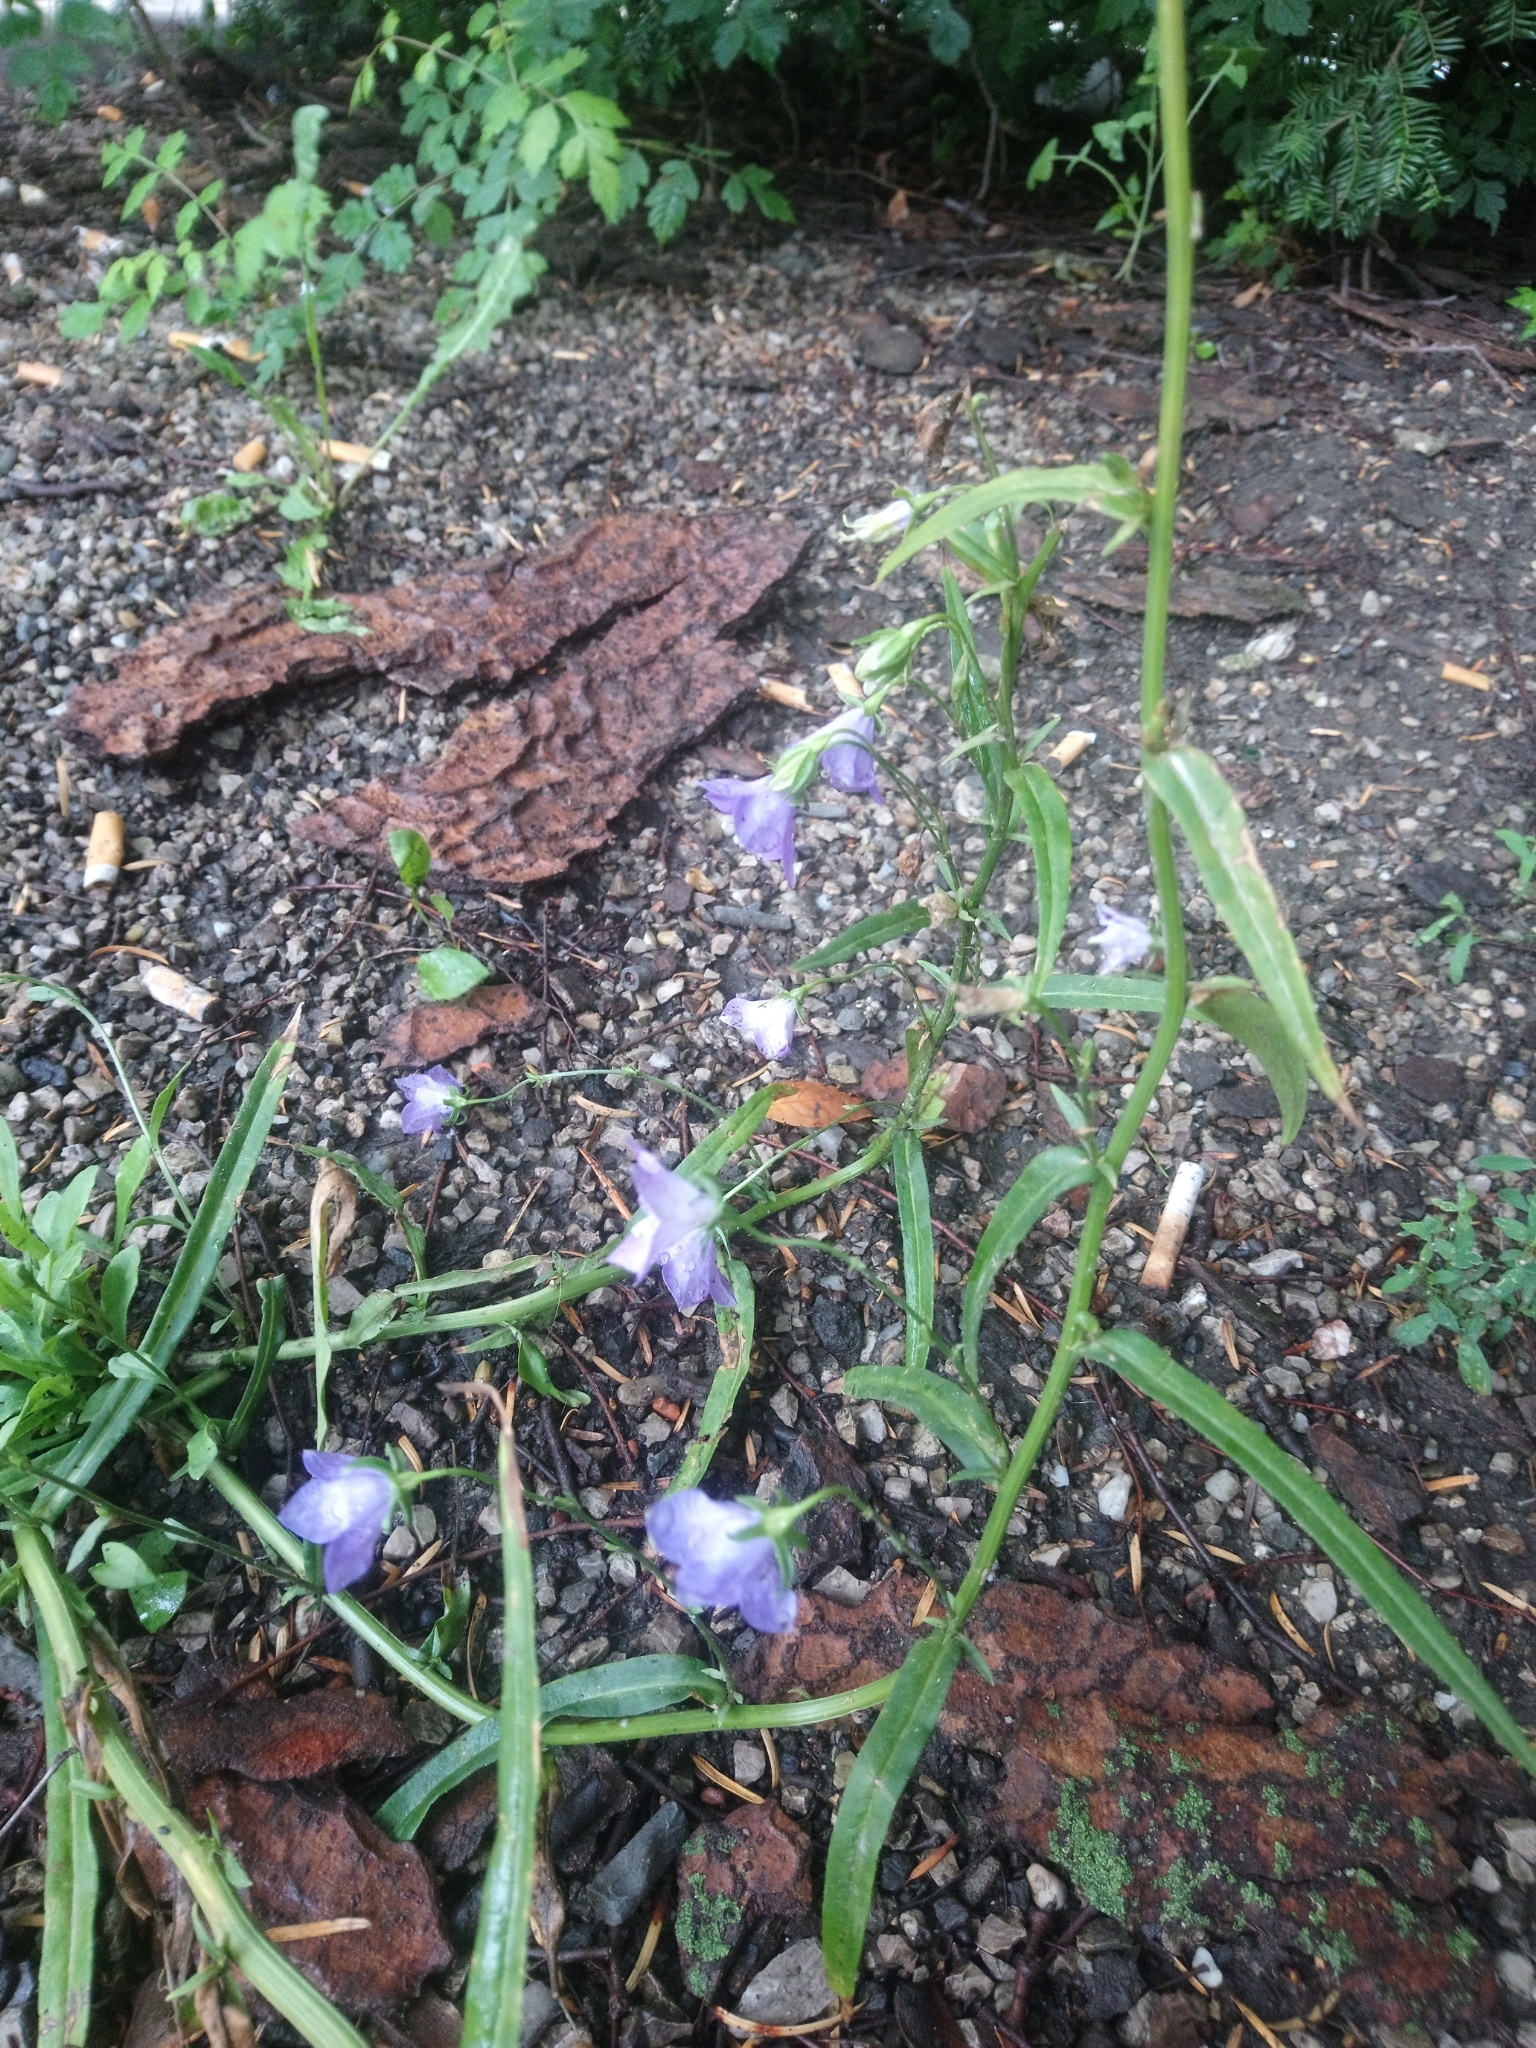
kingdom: Plantae
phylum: Tracheophyta
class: Magnoliopsida
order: Asterales
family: Campanulaceae
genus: Campanula
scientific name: Campanula persicifolia
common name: Peach-leaved bellflower
